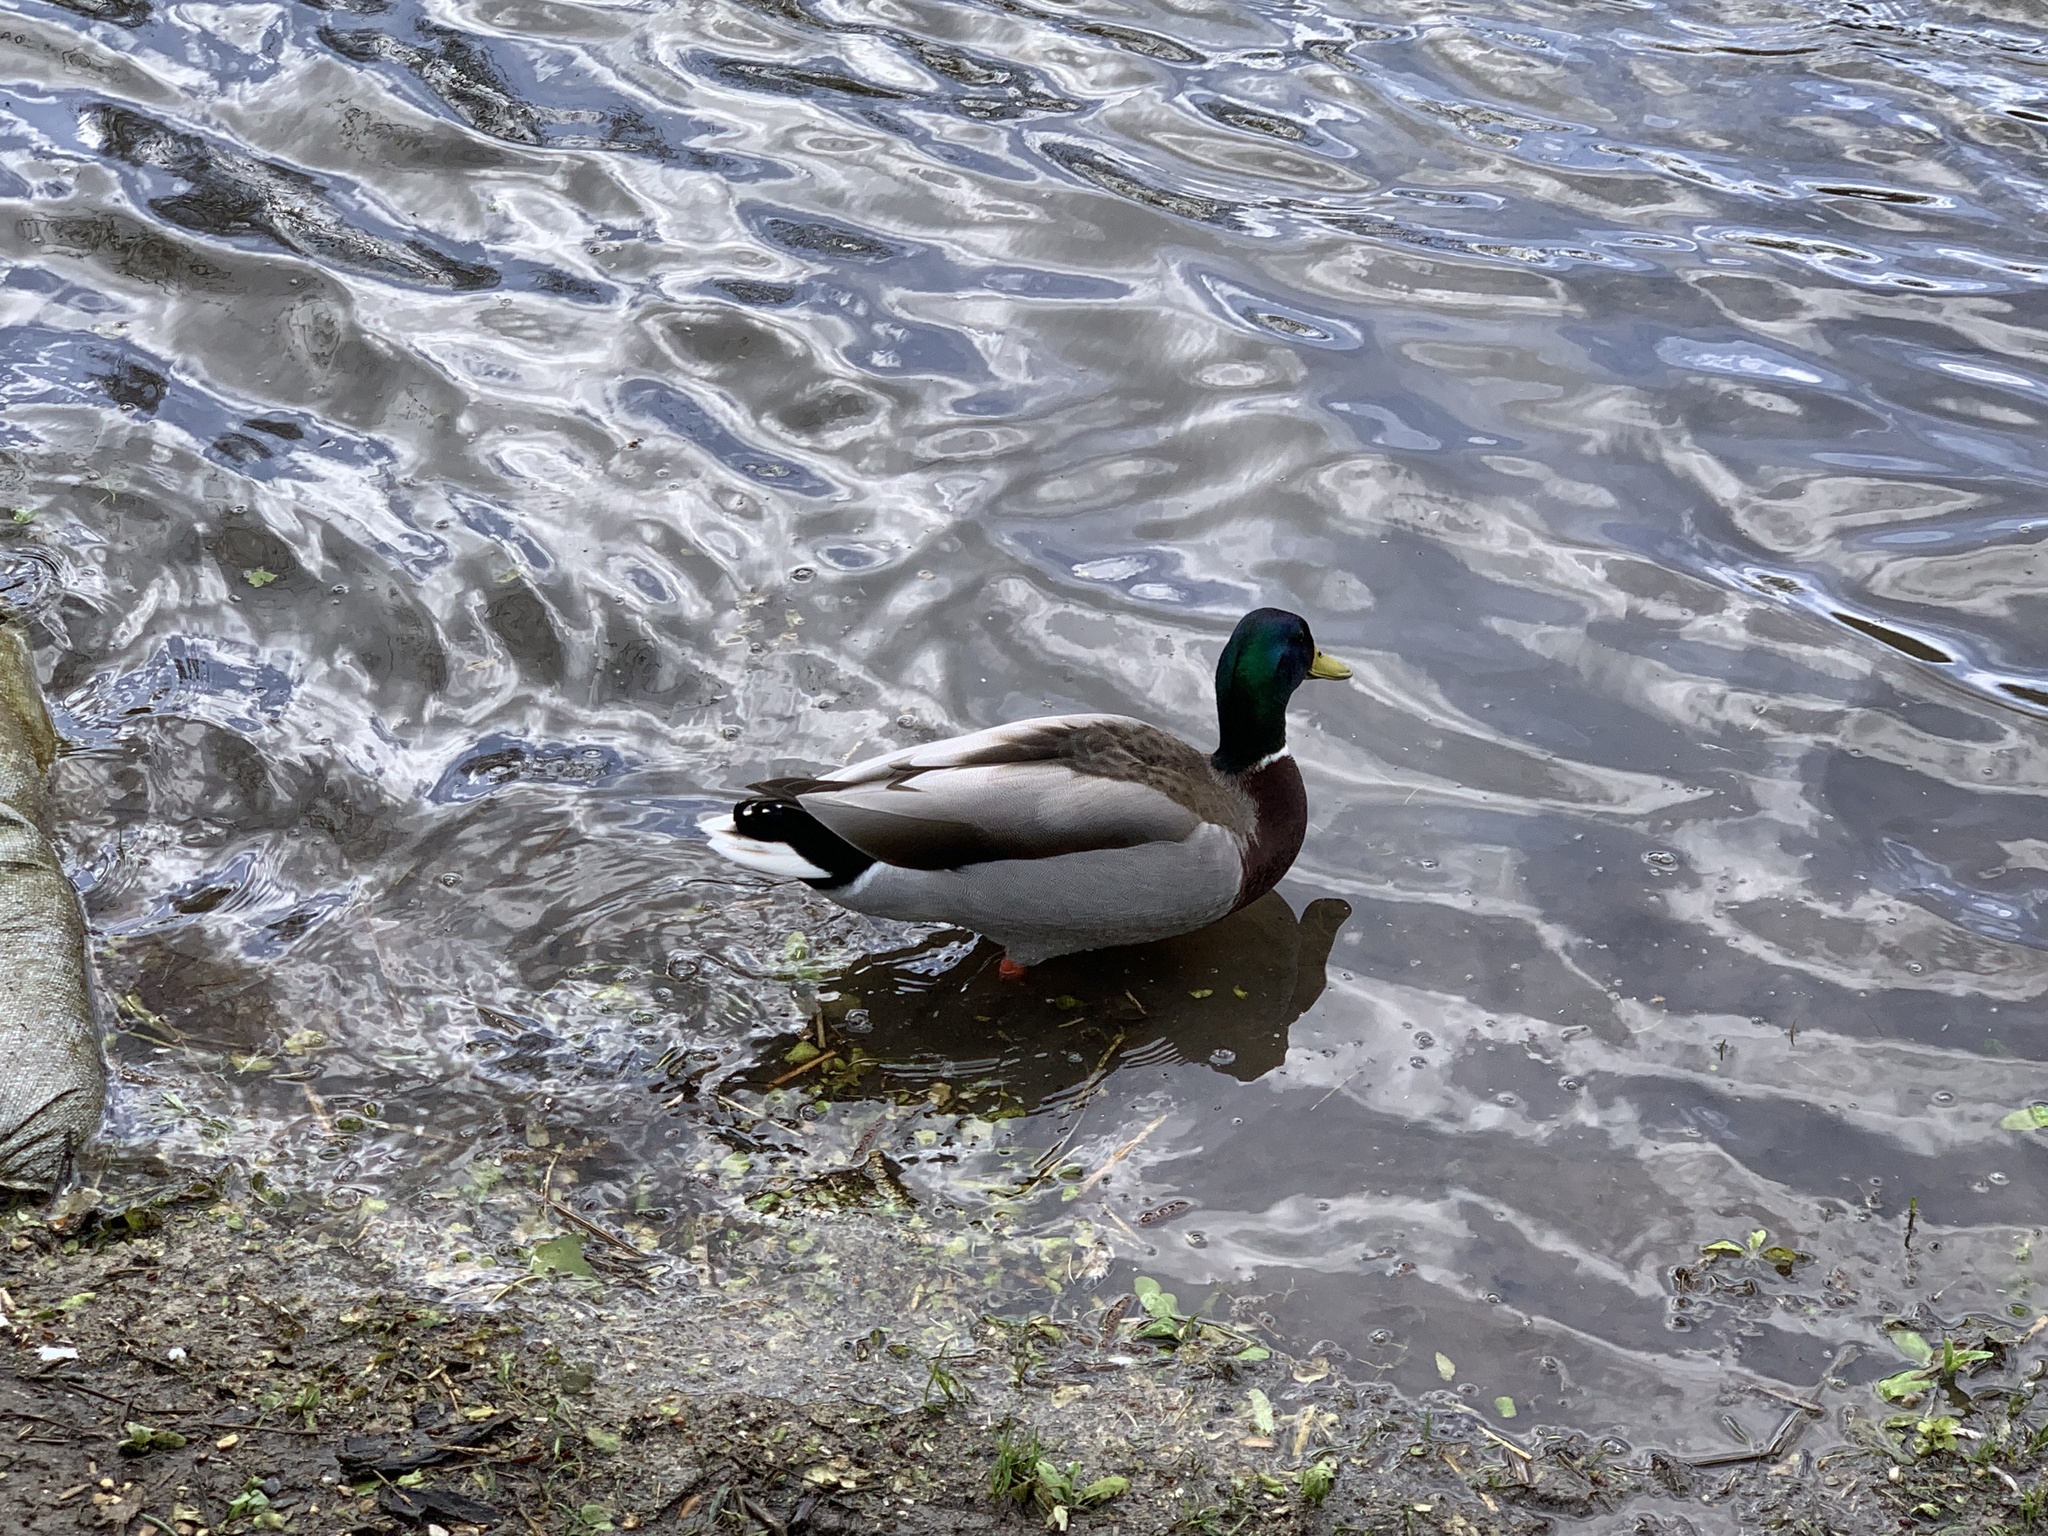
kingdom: Animalia
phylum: Chordata
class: Aves
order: Anseriformes
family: Anatidae
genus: Anas
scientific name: Anas platyrhynchos
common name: Mallard
